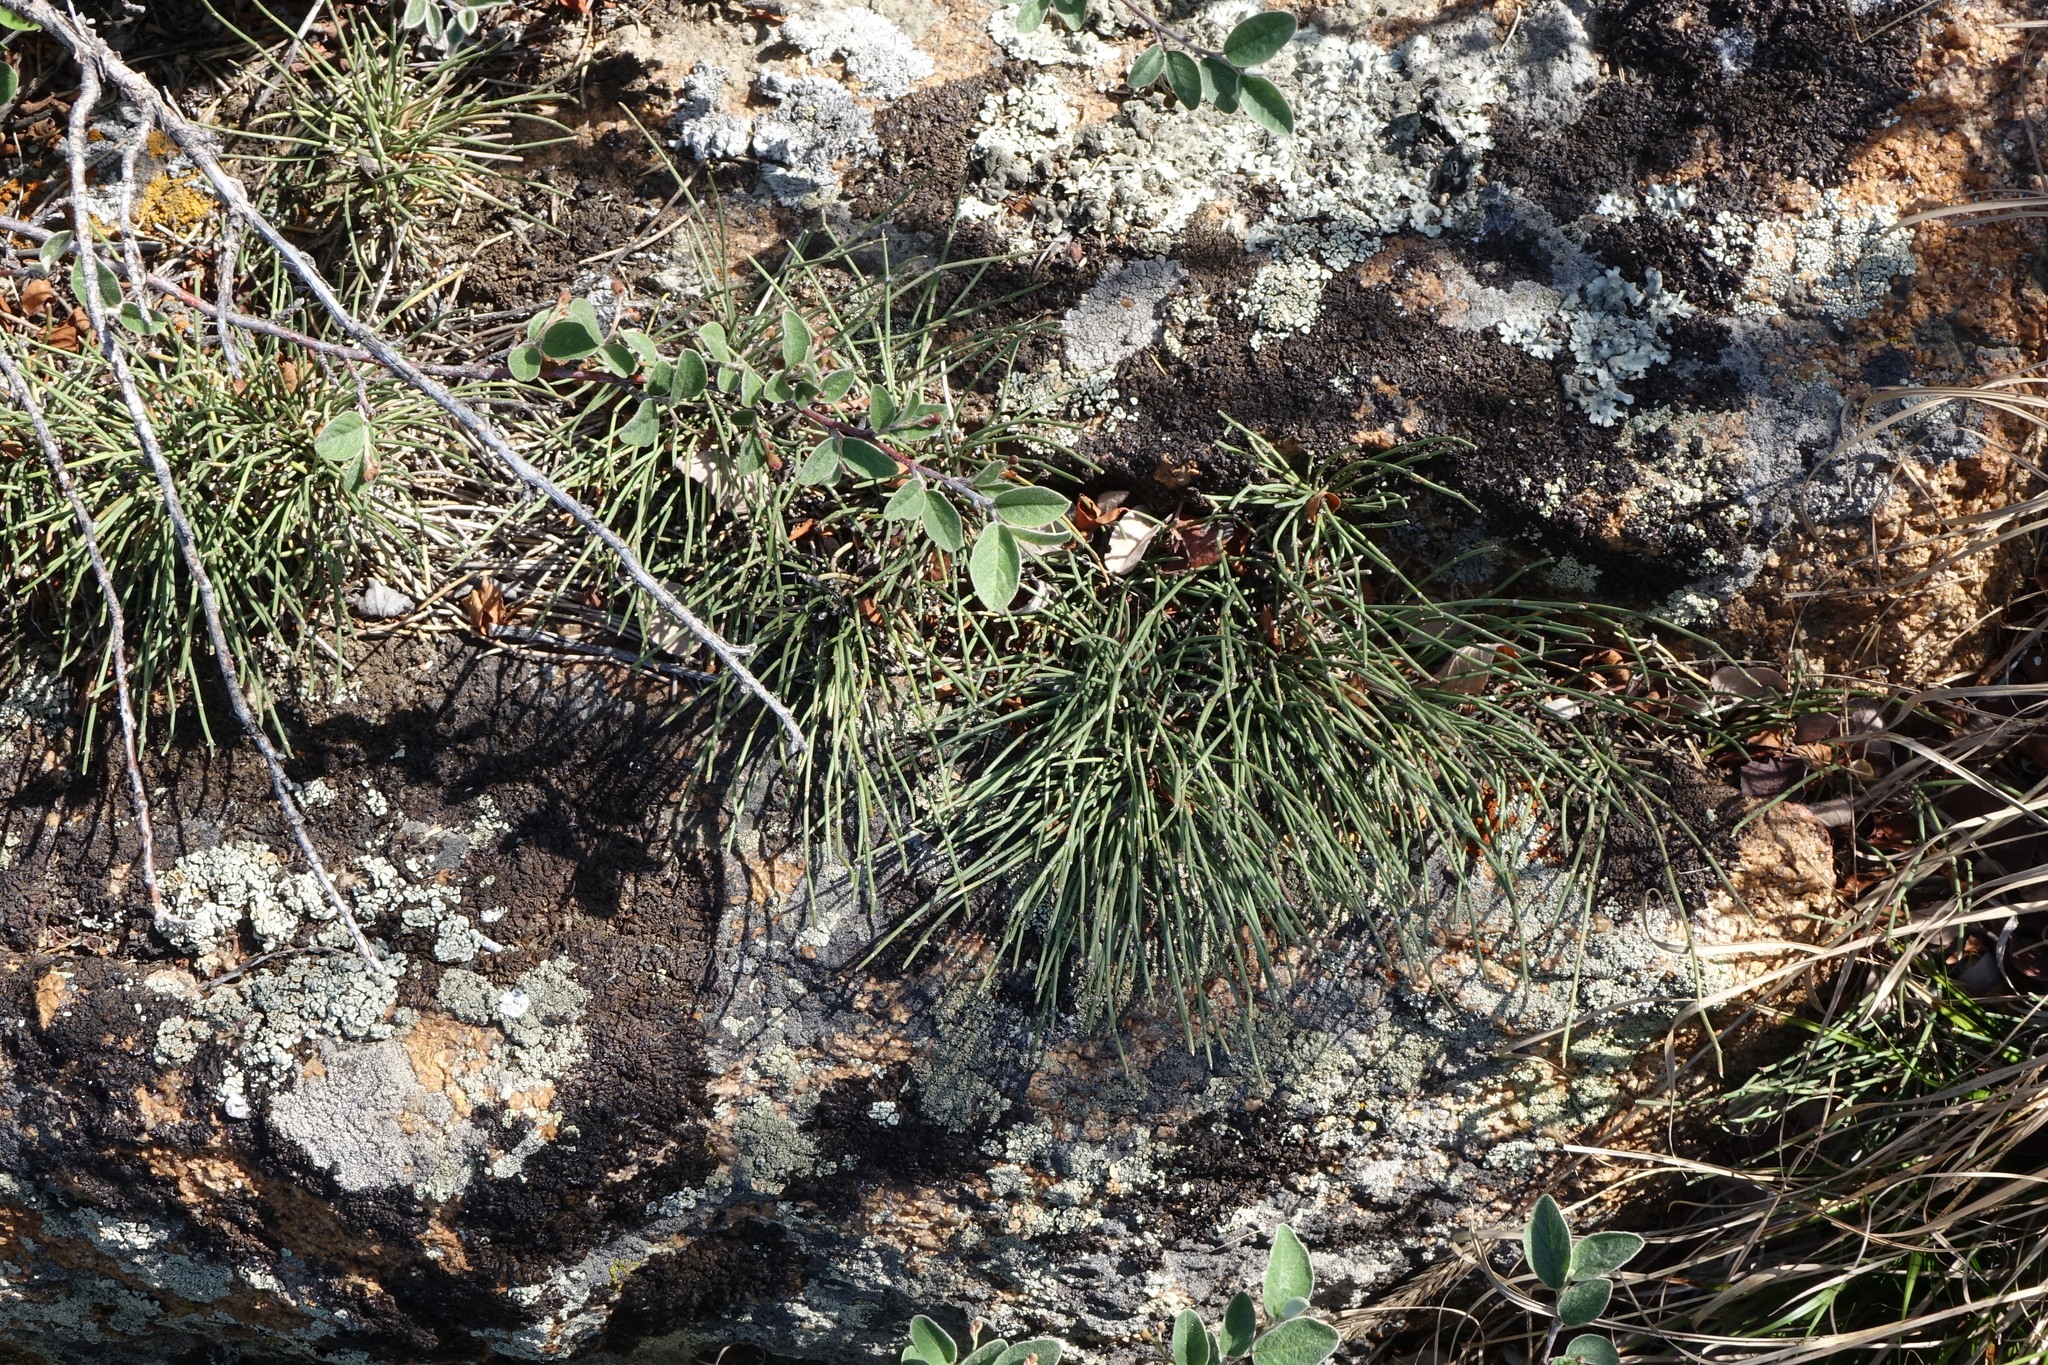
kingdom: Plantae
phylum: Tracheophyta
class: Gnetopsida
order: Ephedrales
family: Ephedraceae
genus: Ephedra
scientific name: Ephedra monosperma
